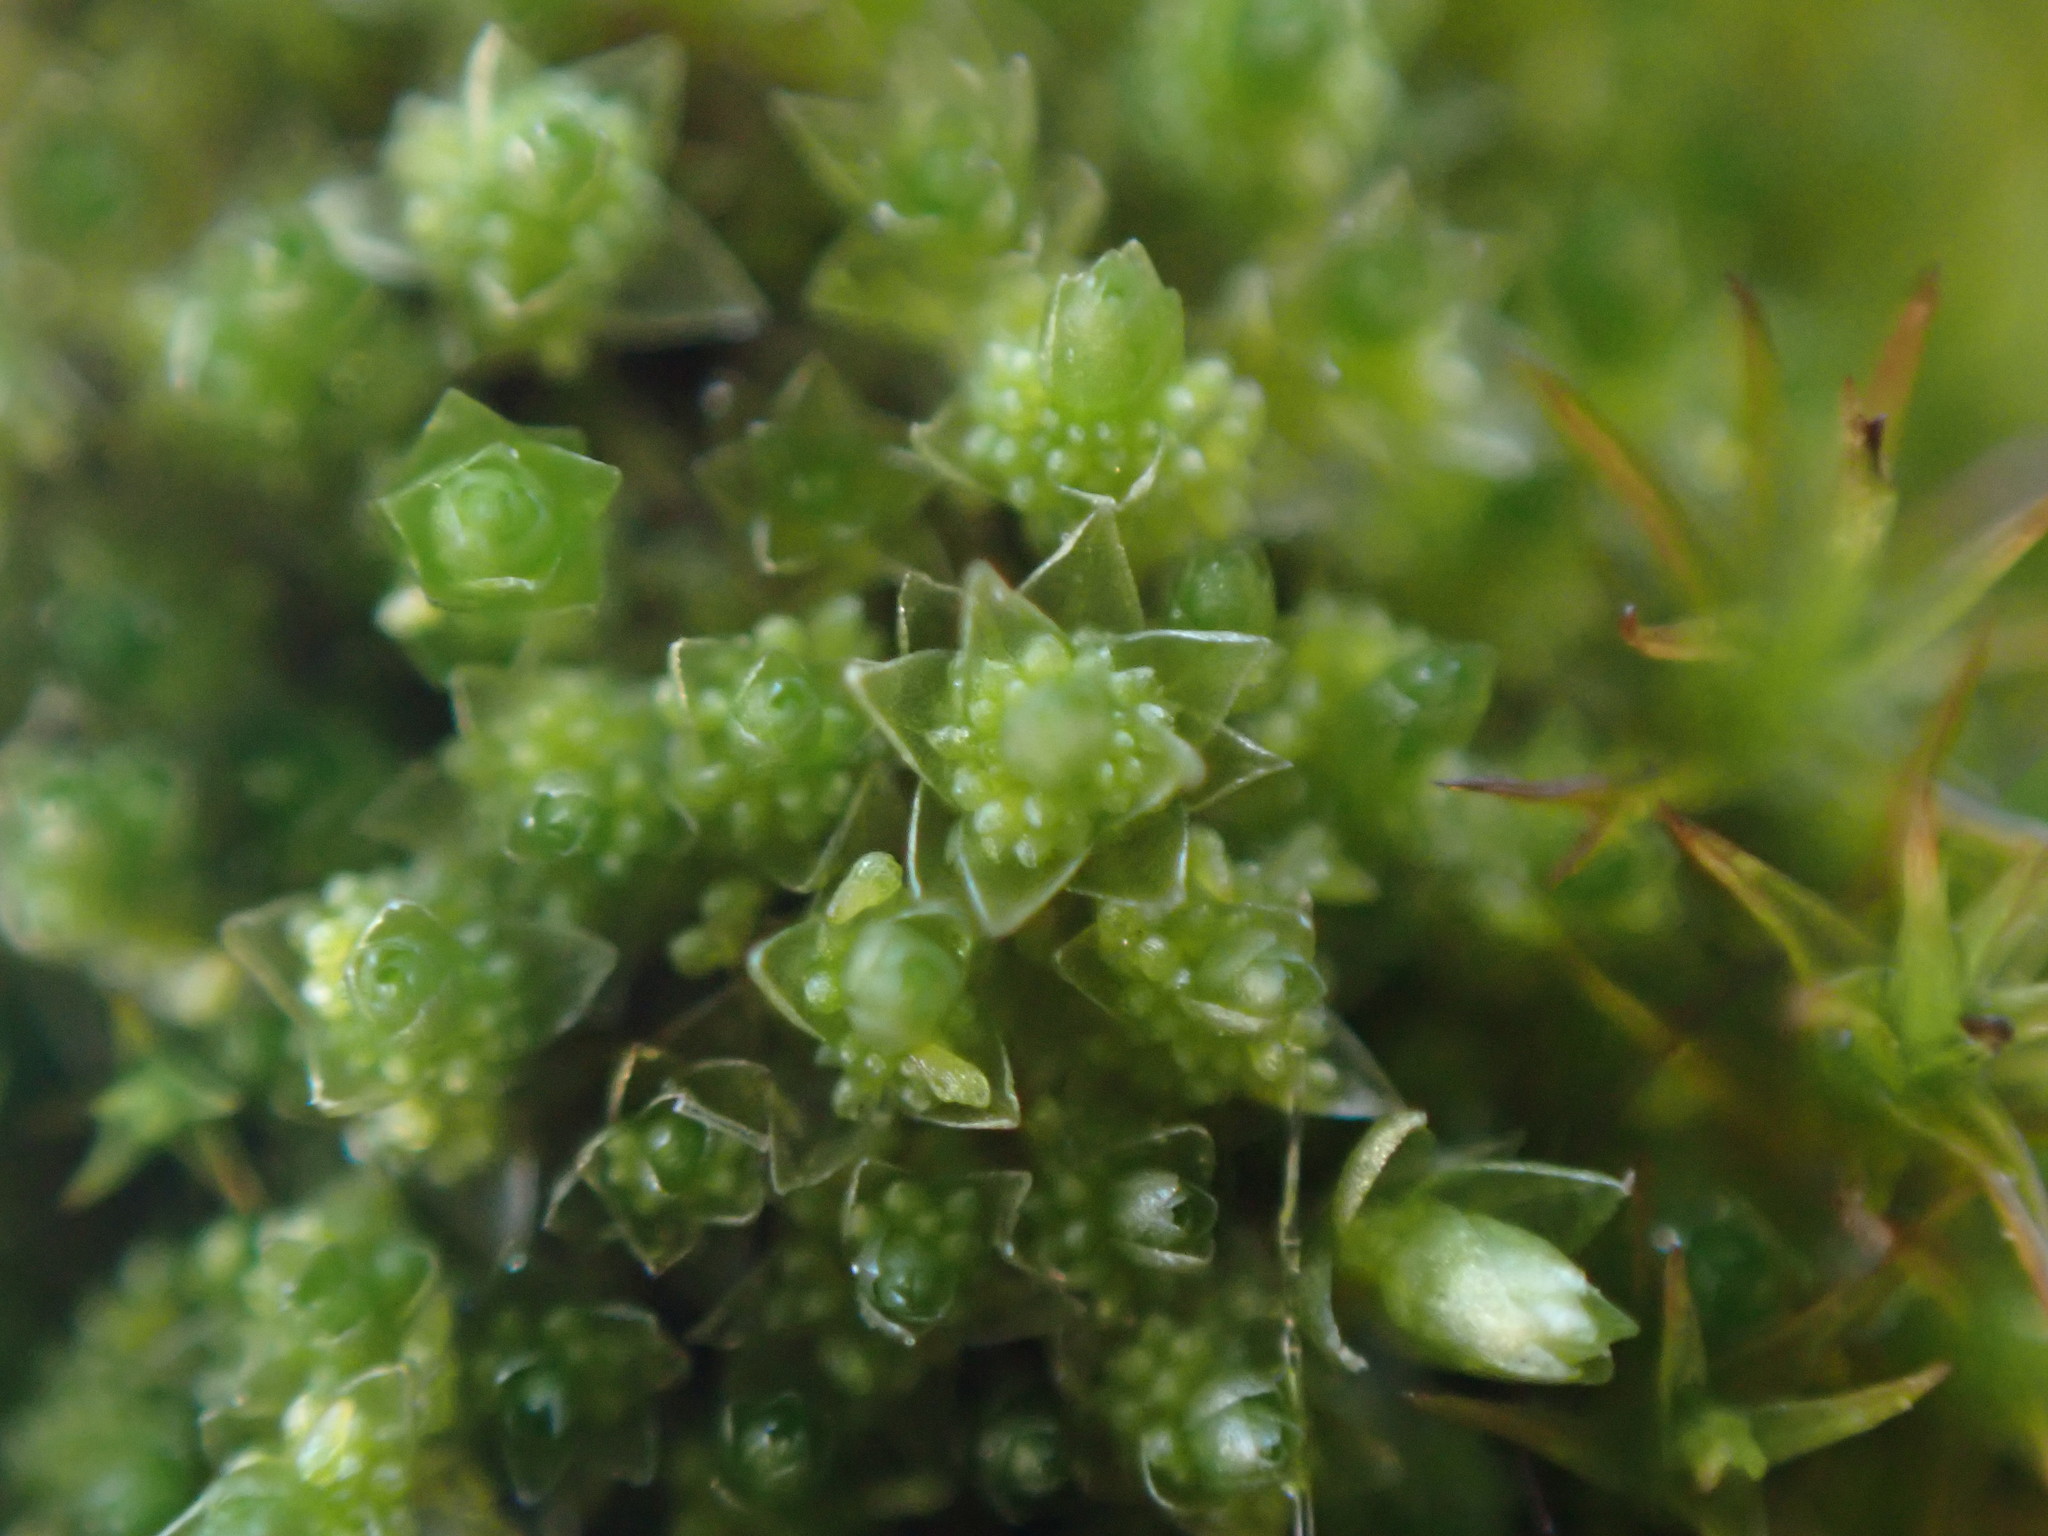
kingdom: Plantae
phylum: Bryophyta
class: Bryopsida
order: Bryales
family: Bryaceae
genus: Gemmabryum
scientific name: Gemmabryum
